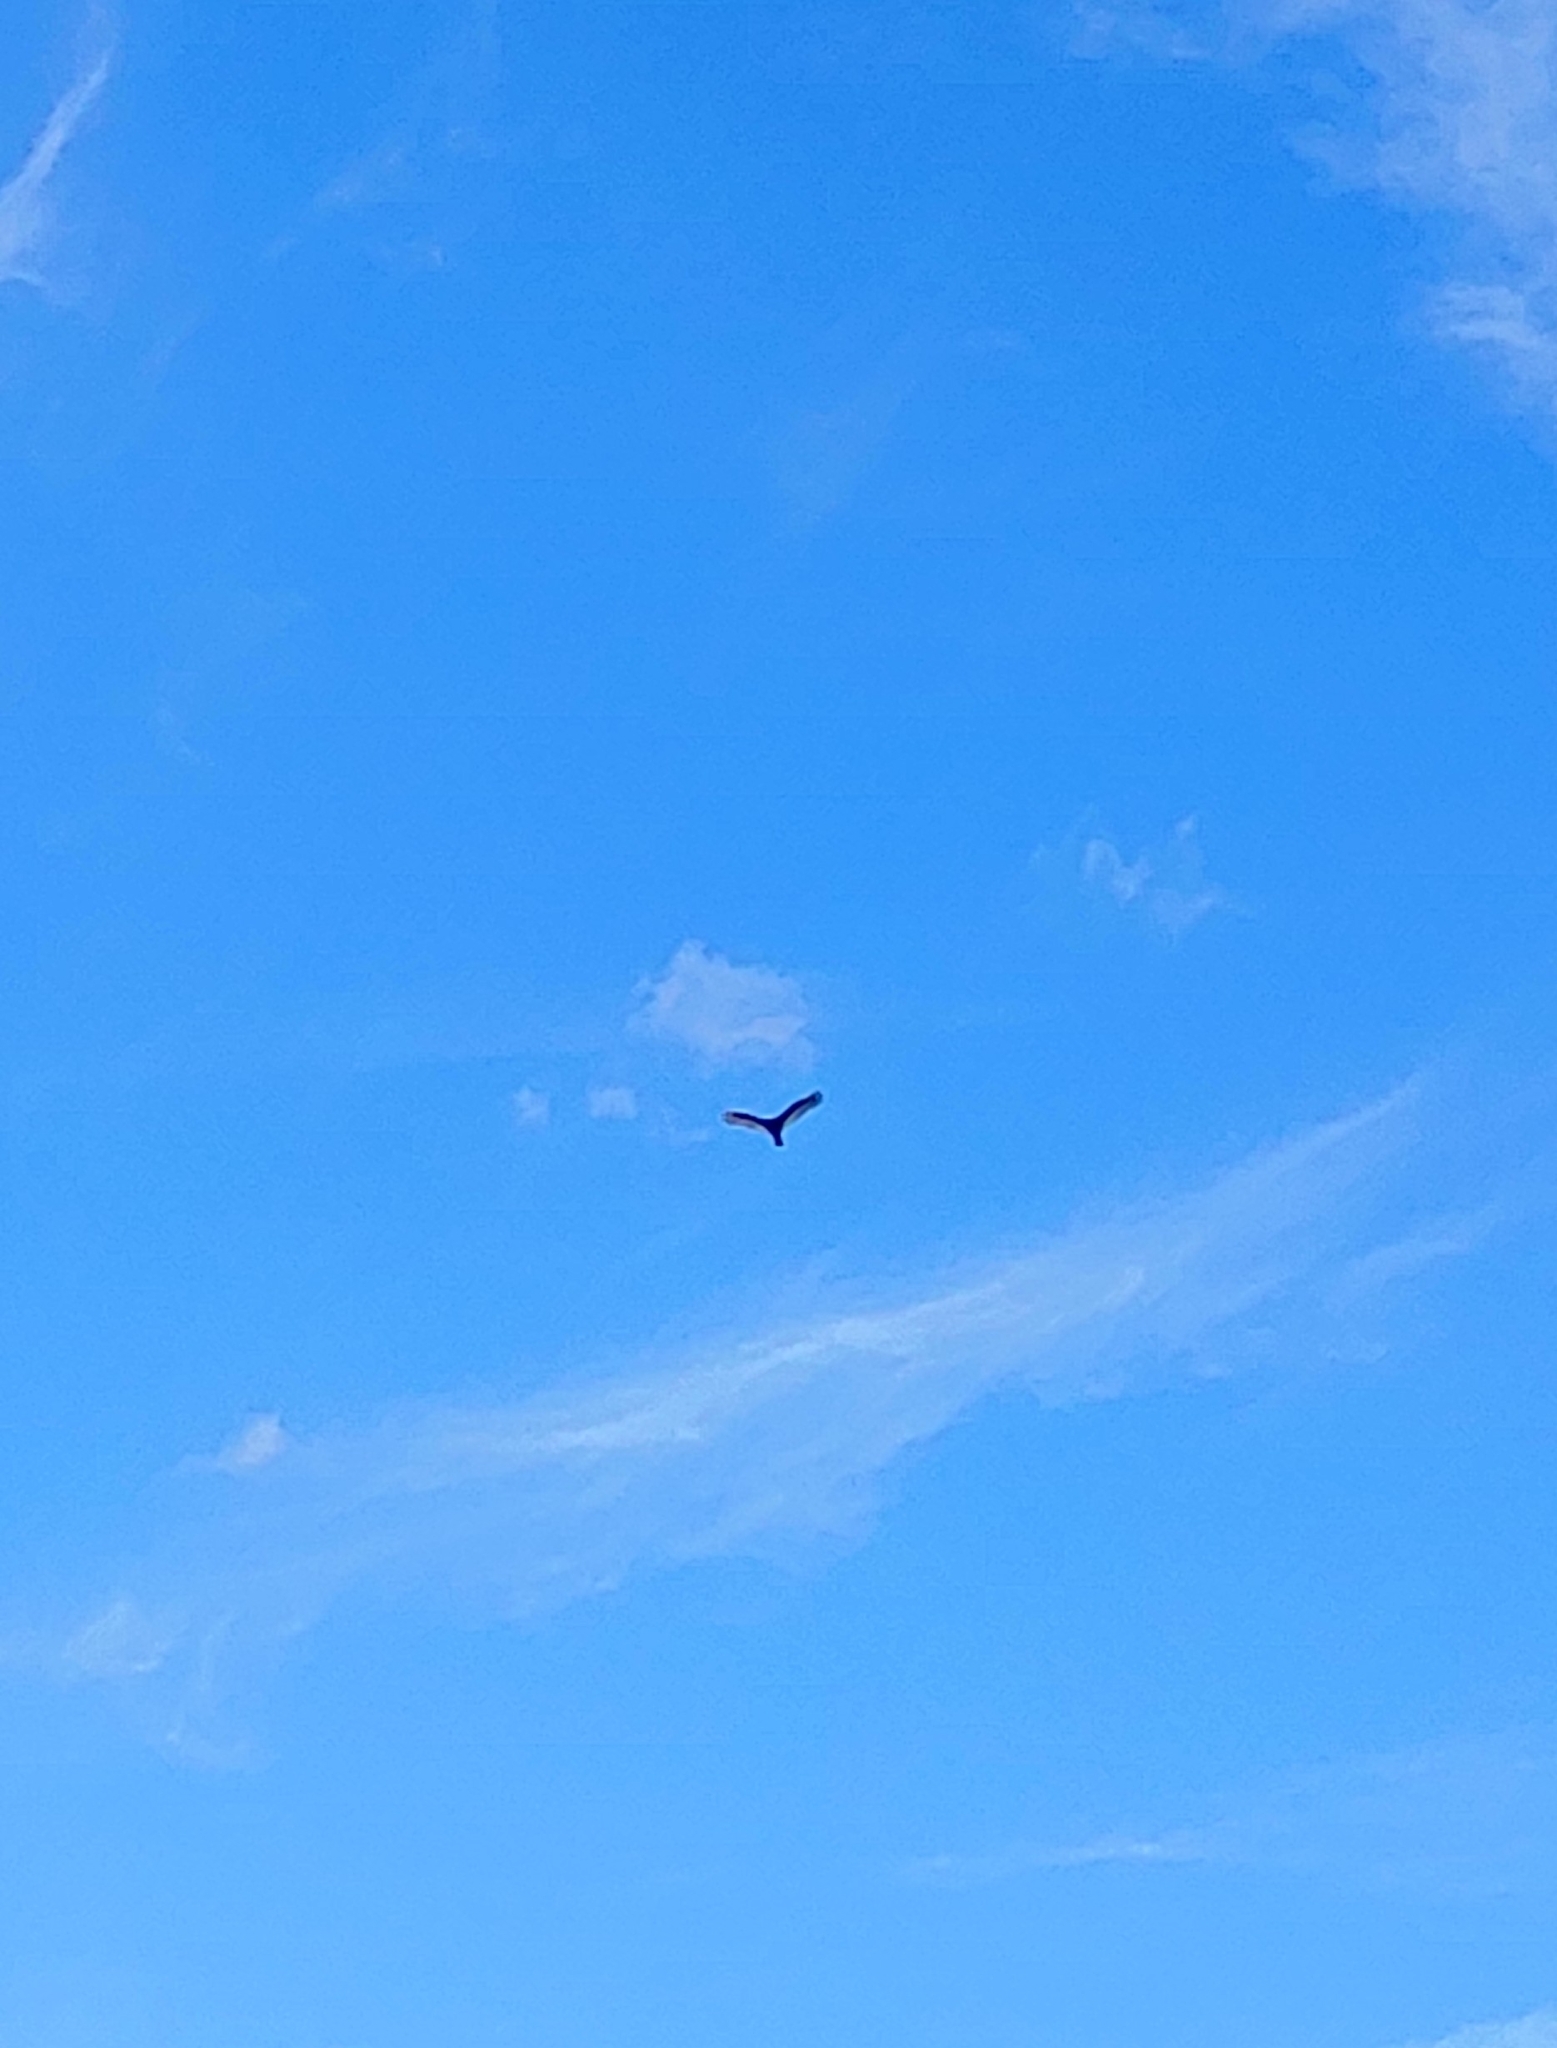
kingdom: Animalia
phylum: Chordata
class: Aves
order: Accipitriformes
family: Cathartidae
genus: Cathartes
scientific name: Cathartes aura
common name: Turkey vulture
